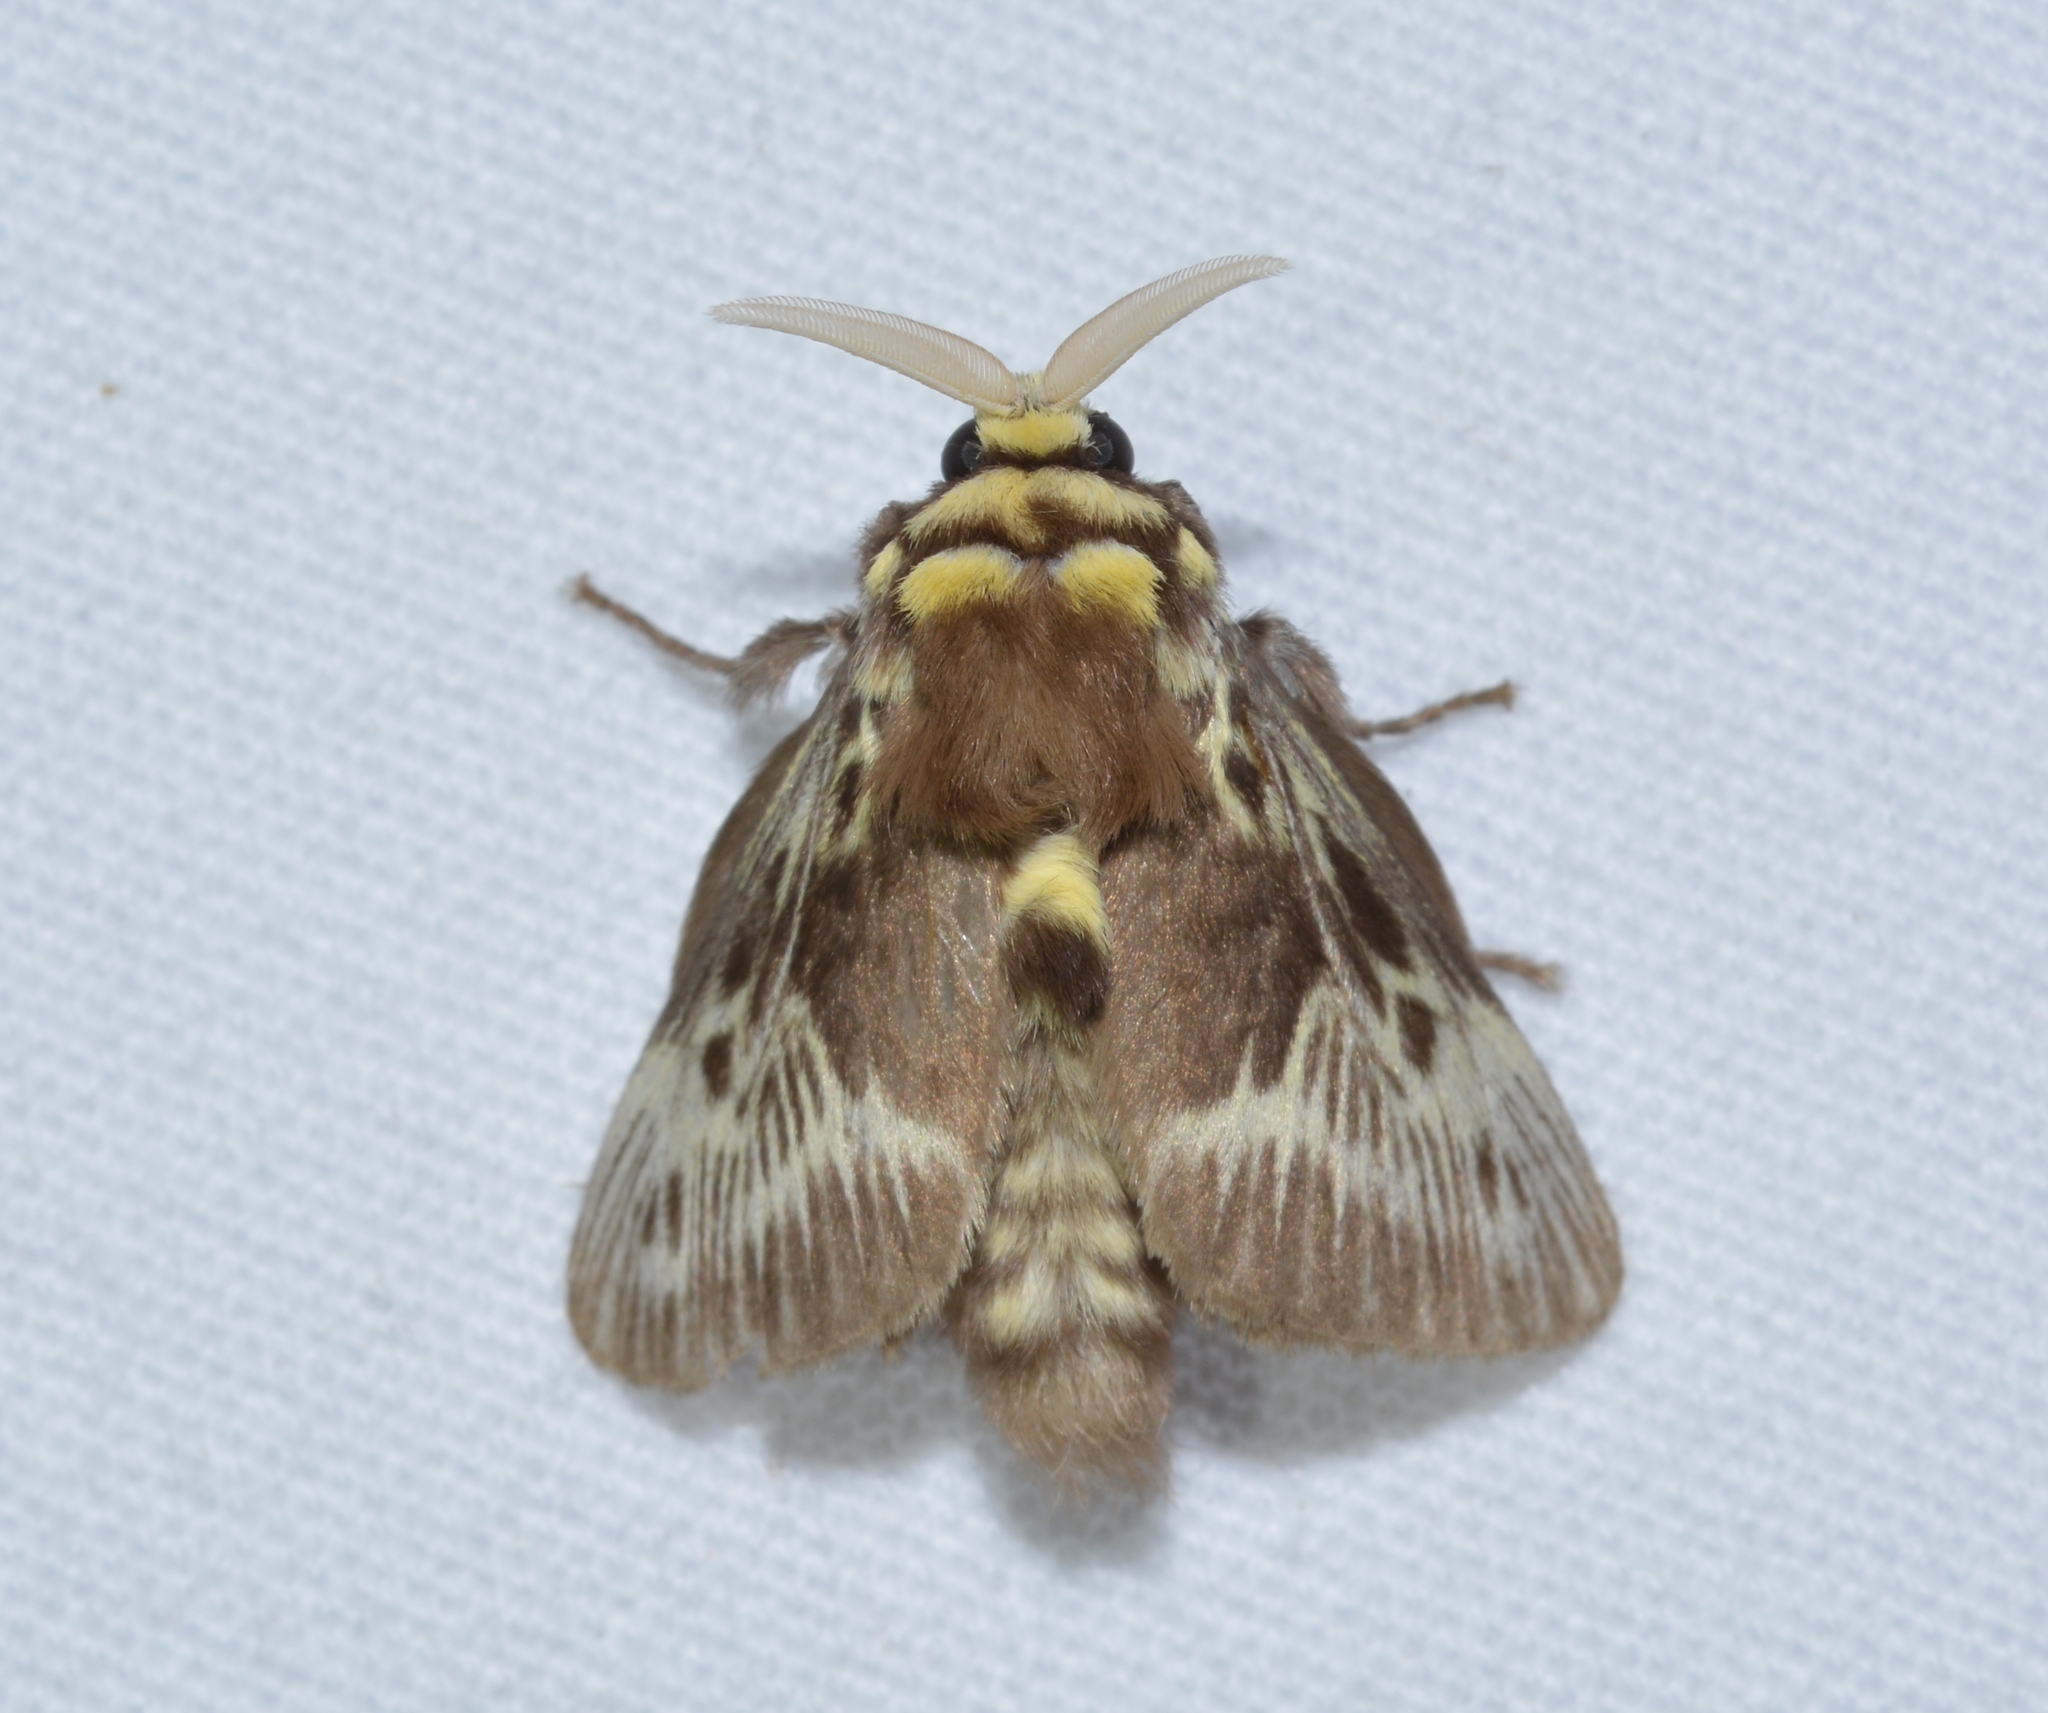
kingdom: Animalia
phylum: Arthropoda
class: Insecta
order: Lepidoptera
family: Megalopygidae
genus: Megalopyge
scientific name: Megalopyge albicollis
